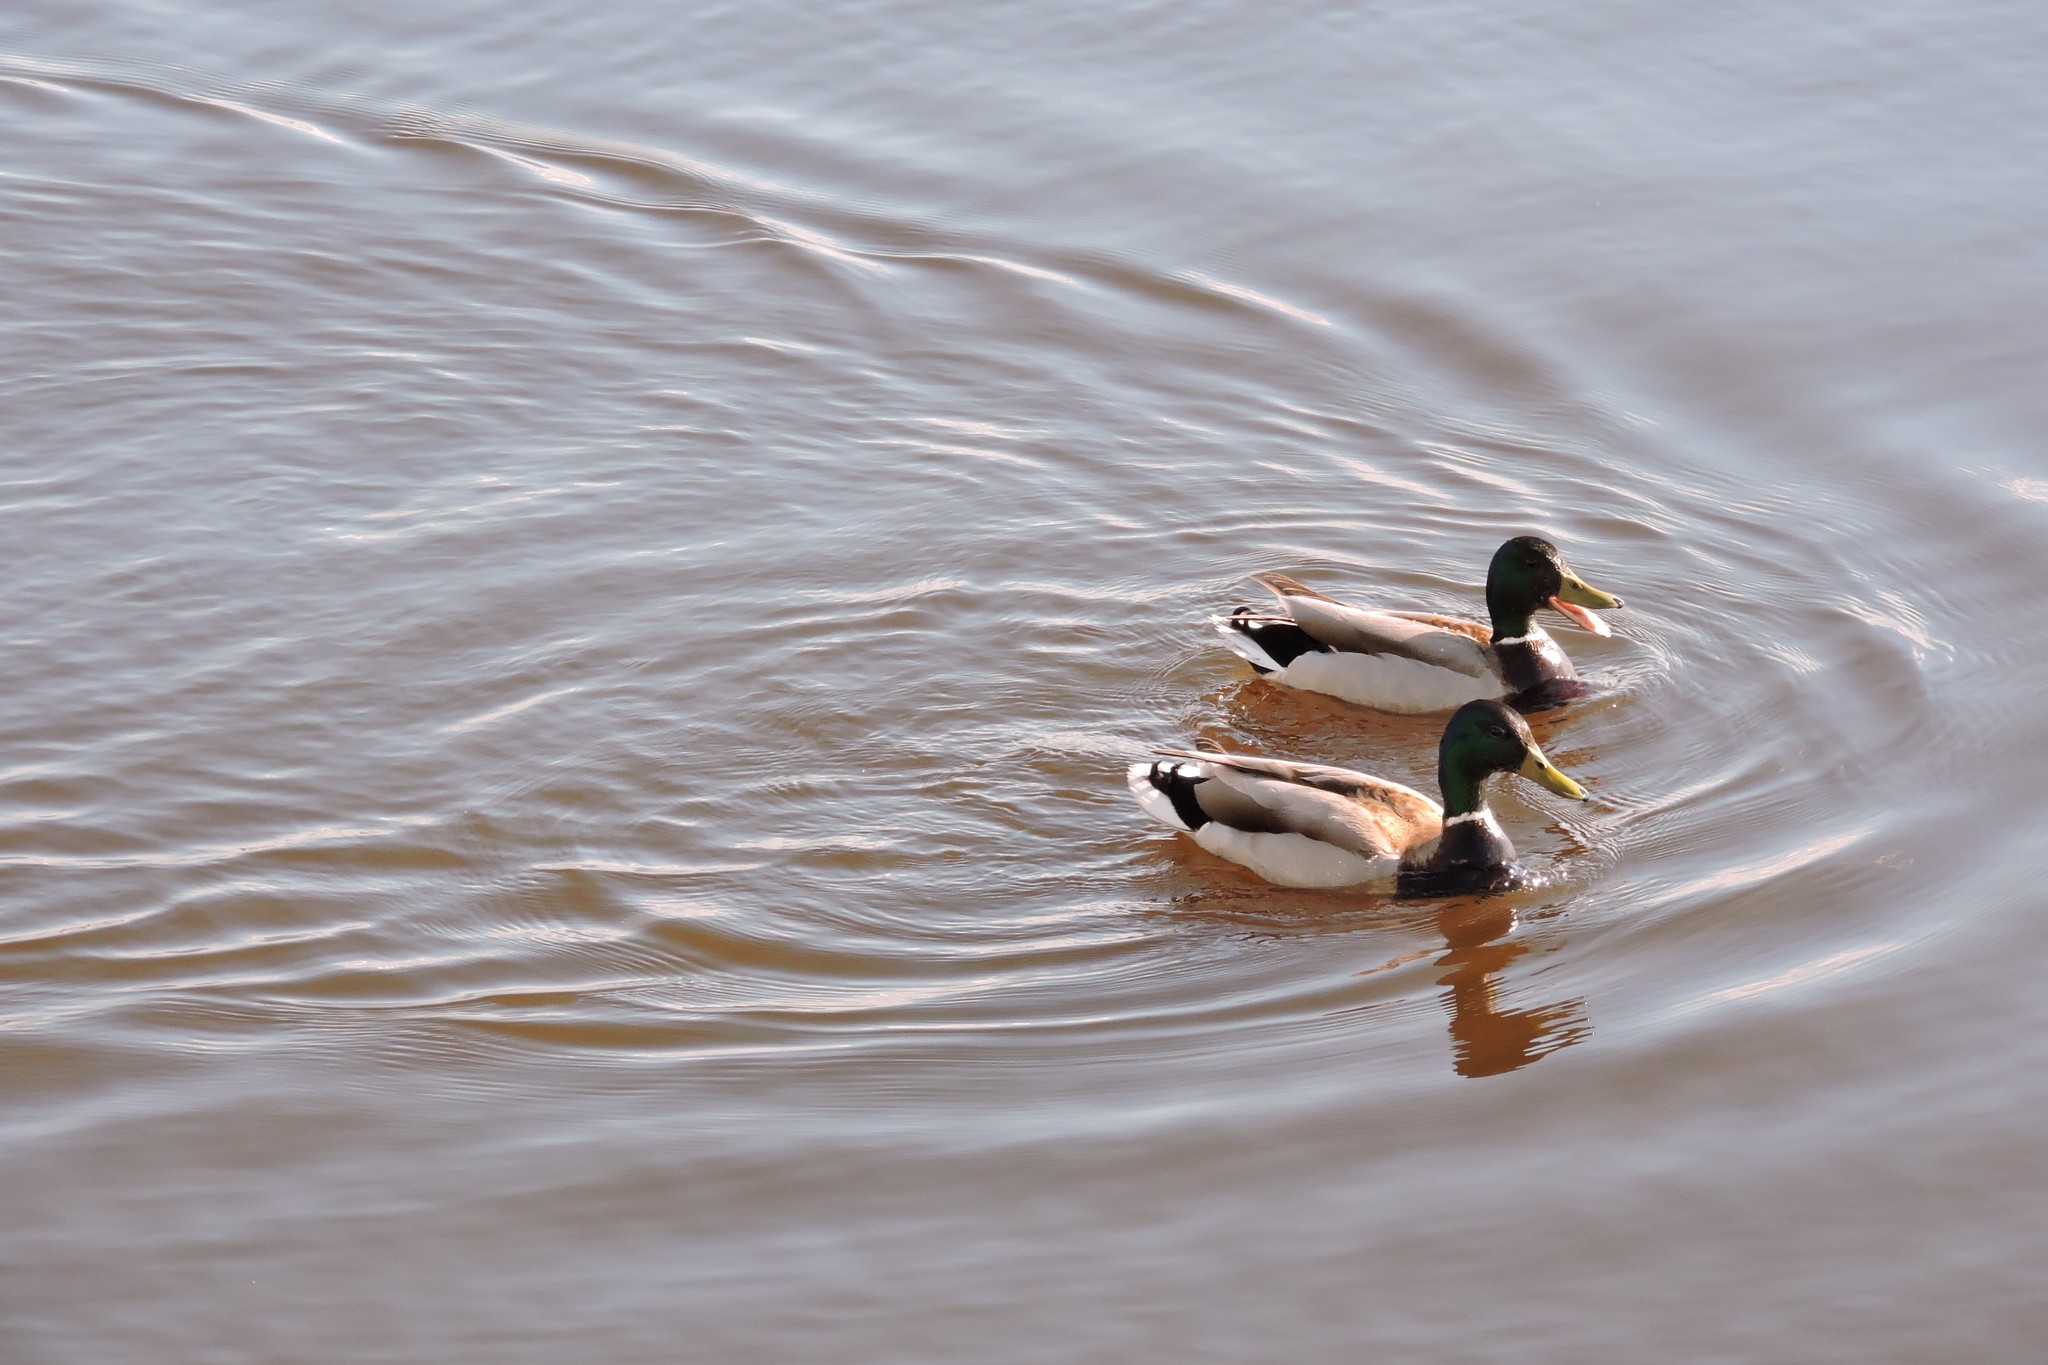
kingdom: Animalia
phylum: Chordata
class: Aves
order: Anseriformes
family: Anatidae
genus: Anas
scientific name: Anas platyrhynchos
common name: Mallard
